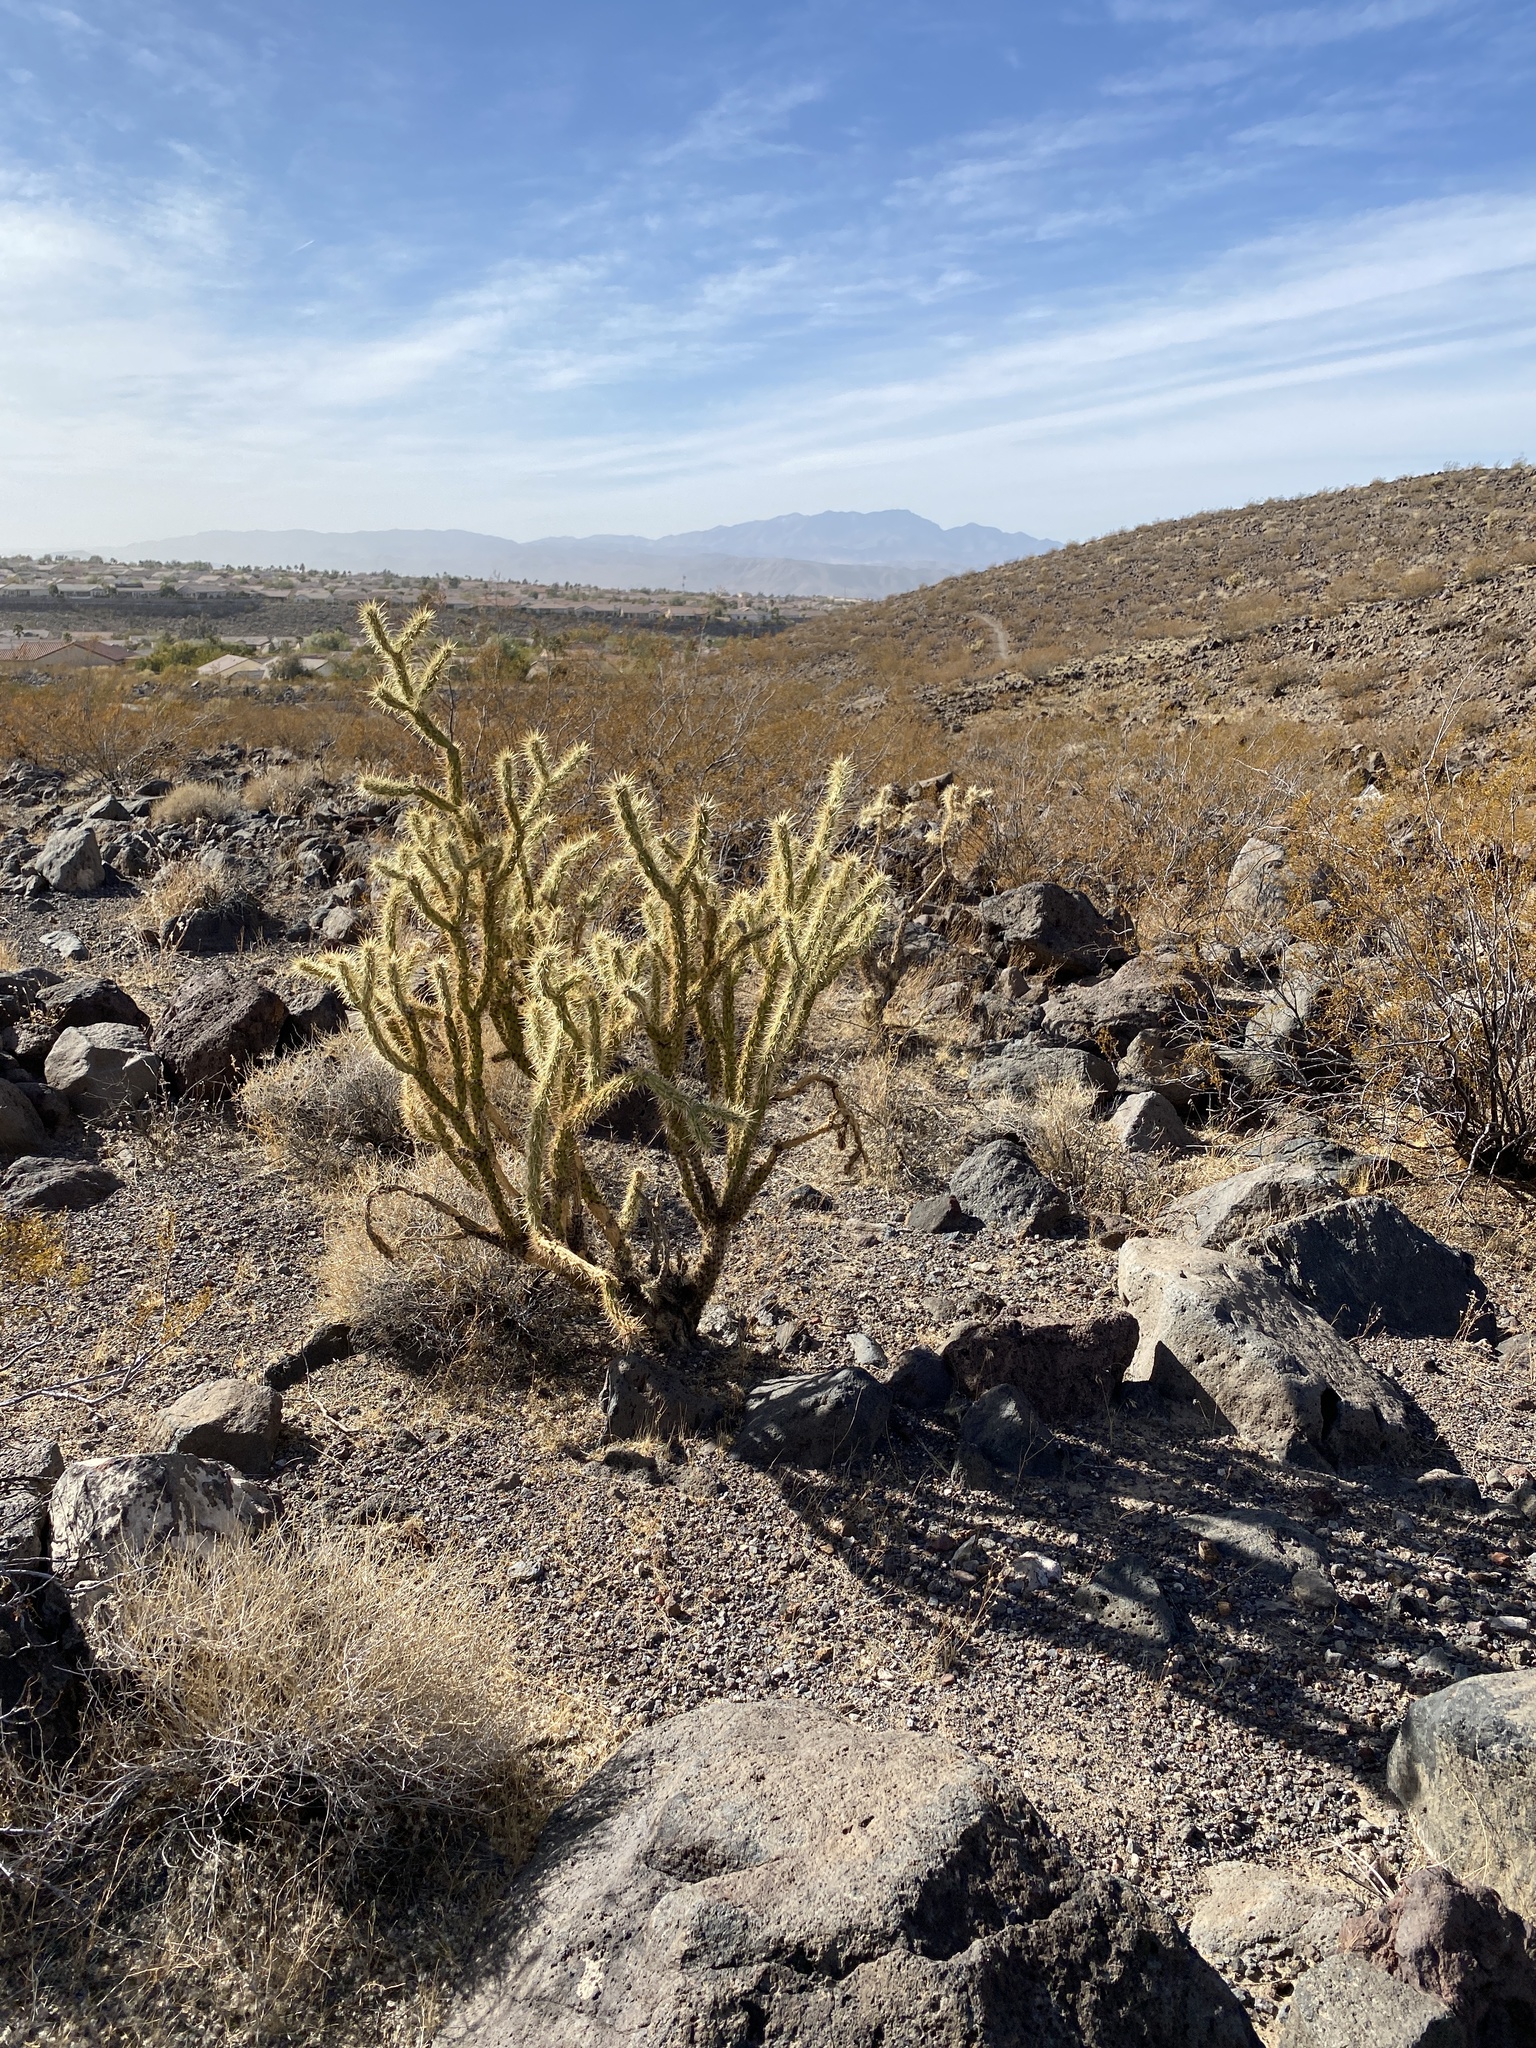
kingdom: Plantae
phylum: Tracheophyta
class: Magnoliopsida
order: Caryophyllales
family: Cactaceae
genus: Cylindropuntia
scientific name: Cylindropuntia acanthocarpa
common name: Buckhorn cholla
